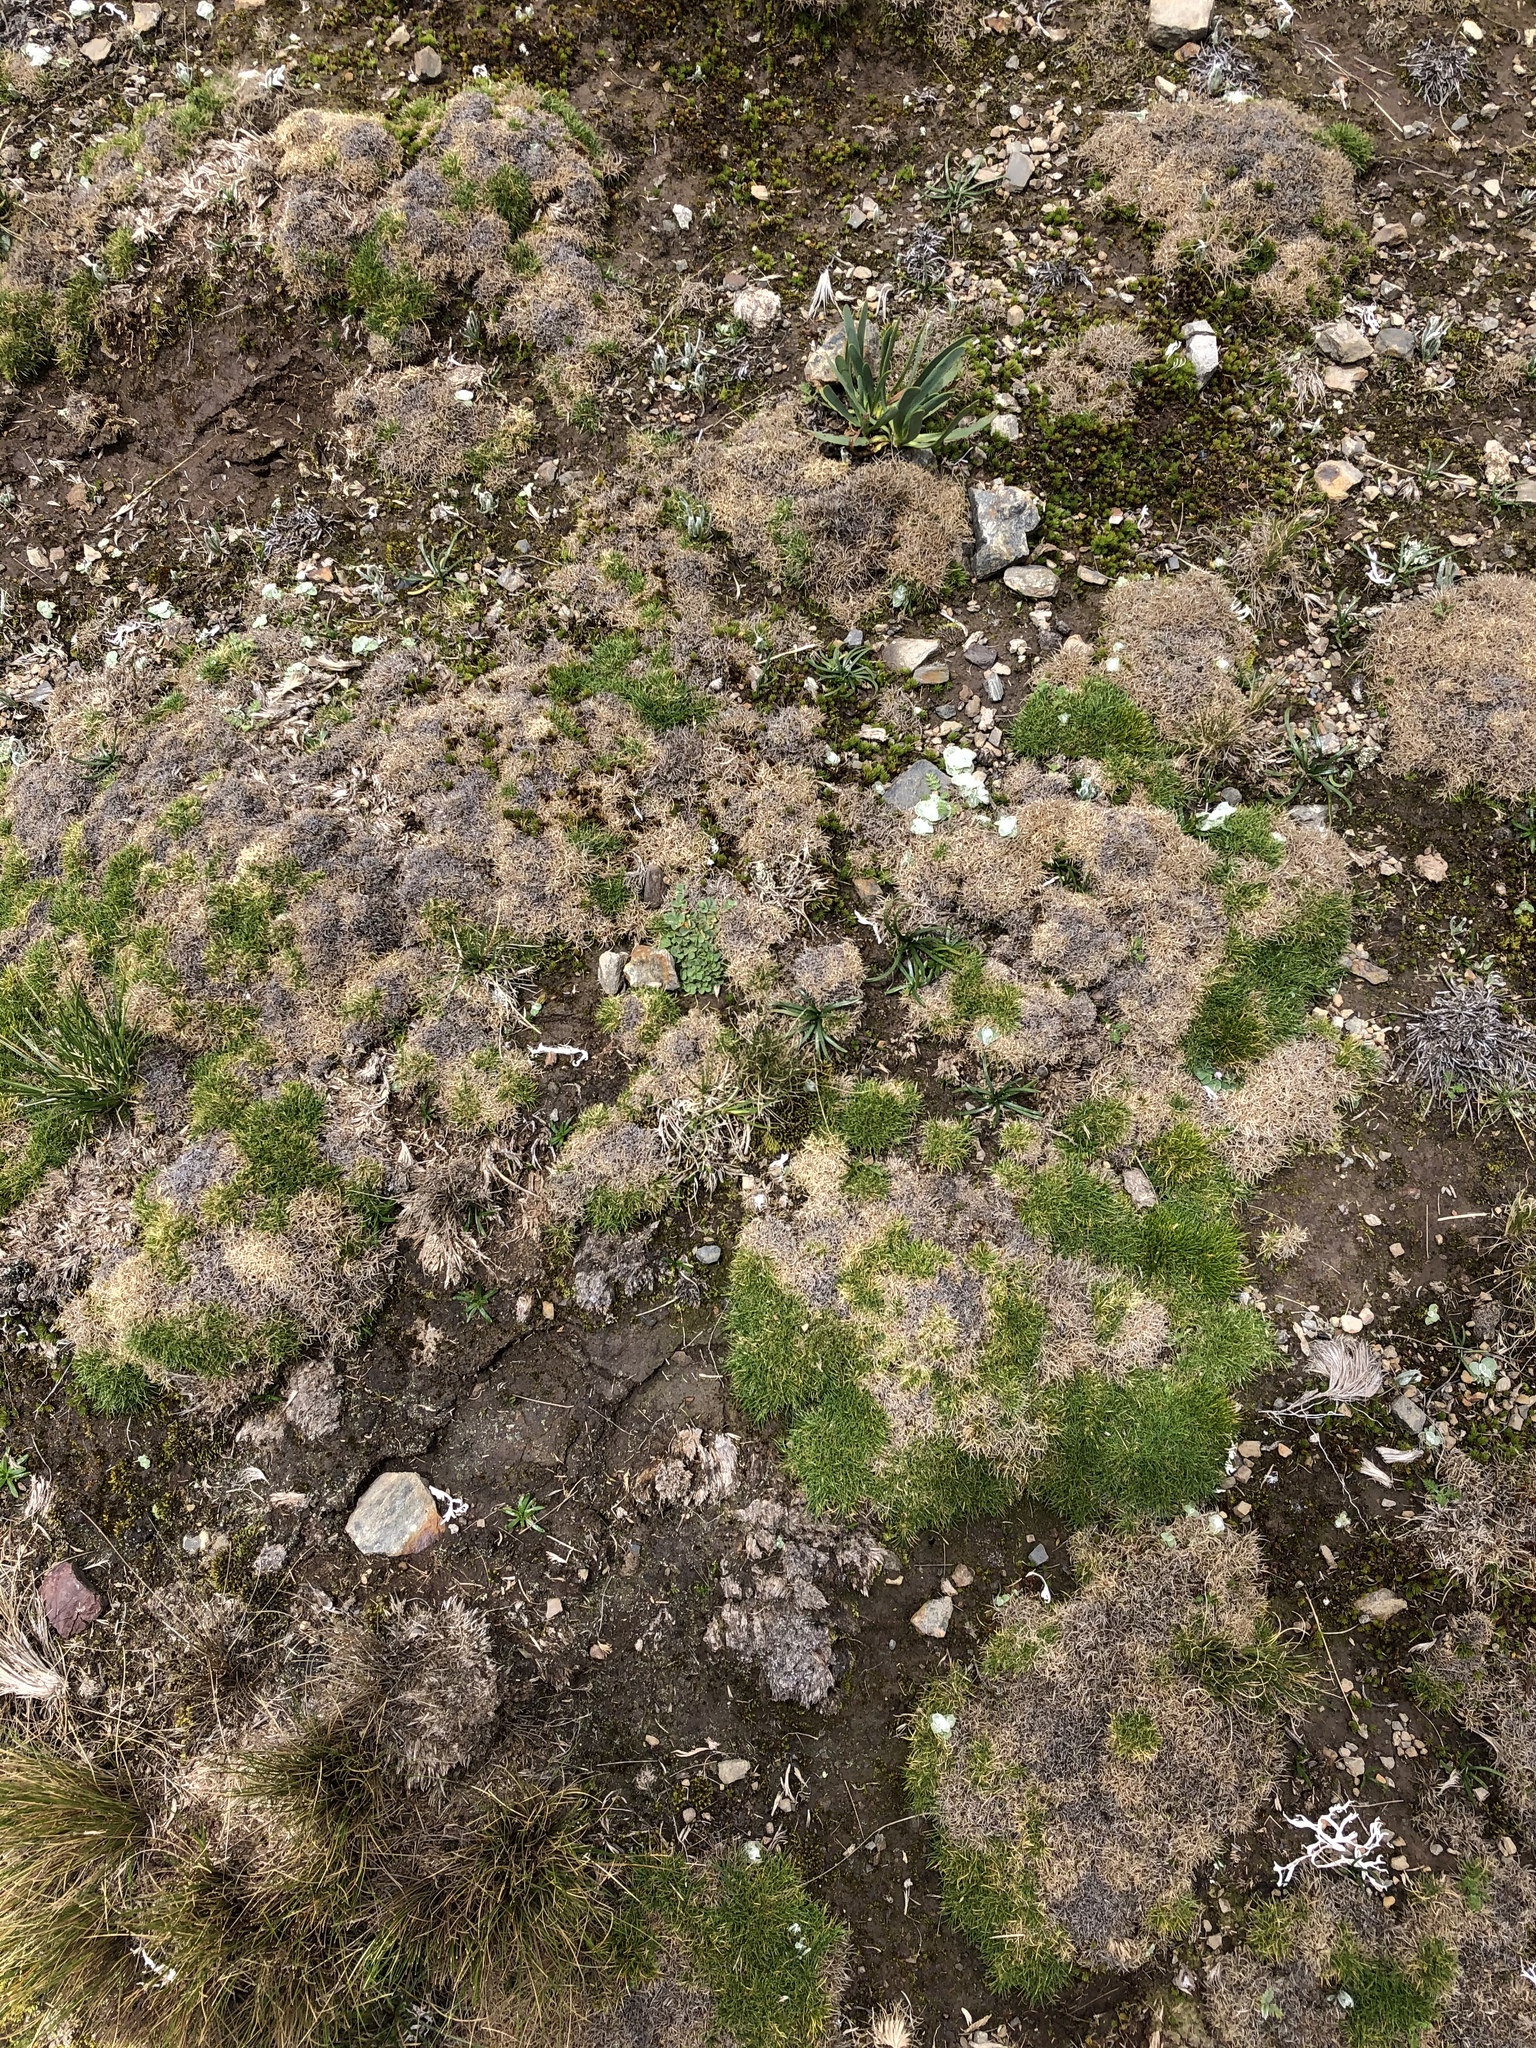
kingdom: Plantae
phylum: Tracheophyta
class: Liliopsida
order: Poales
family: Poaceae
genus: Aciachne
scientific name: Aciachne pulvinata
